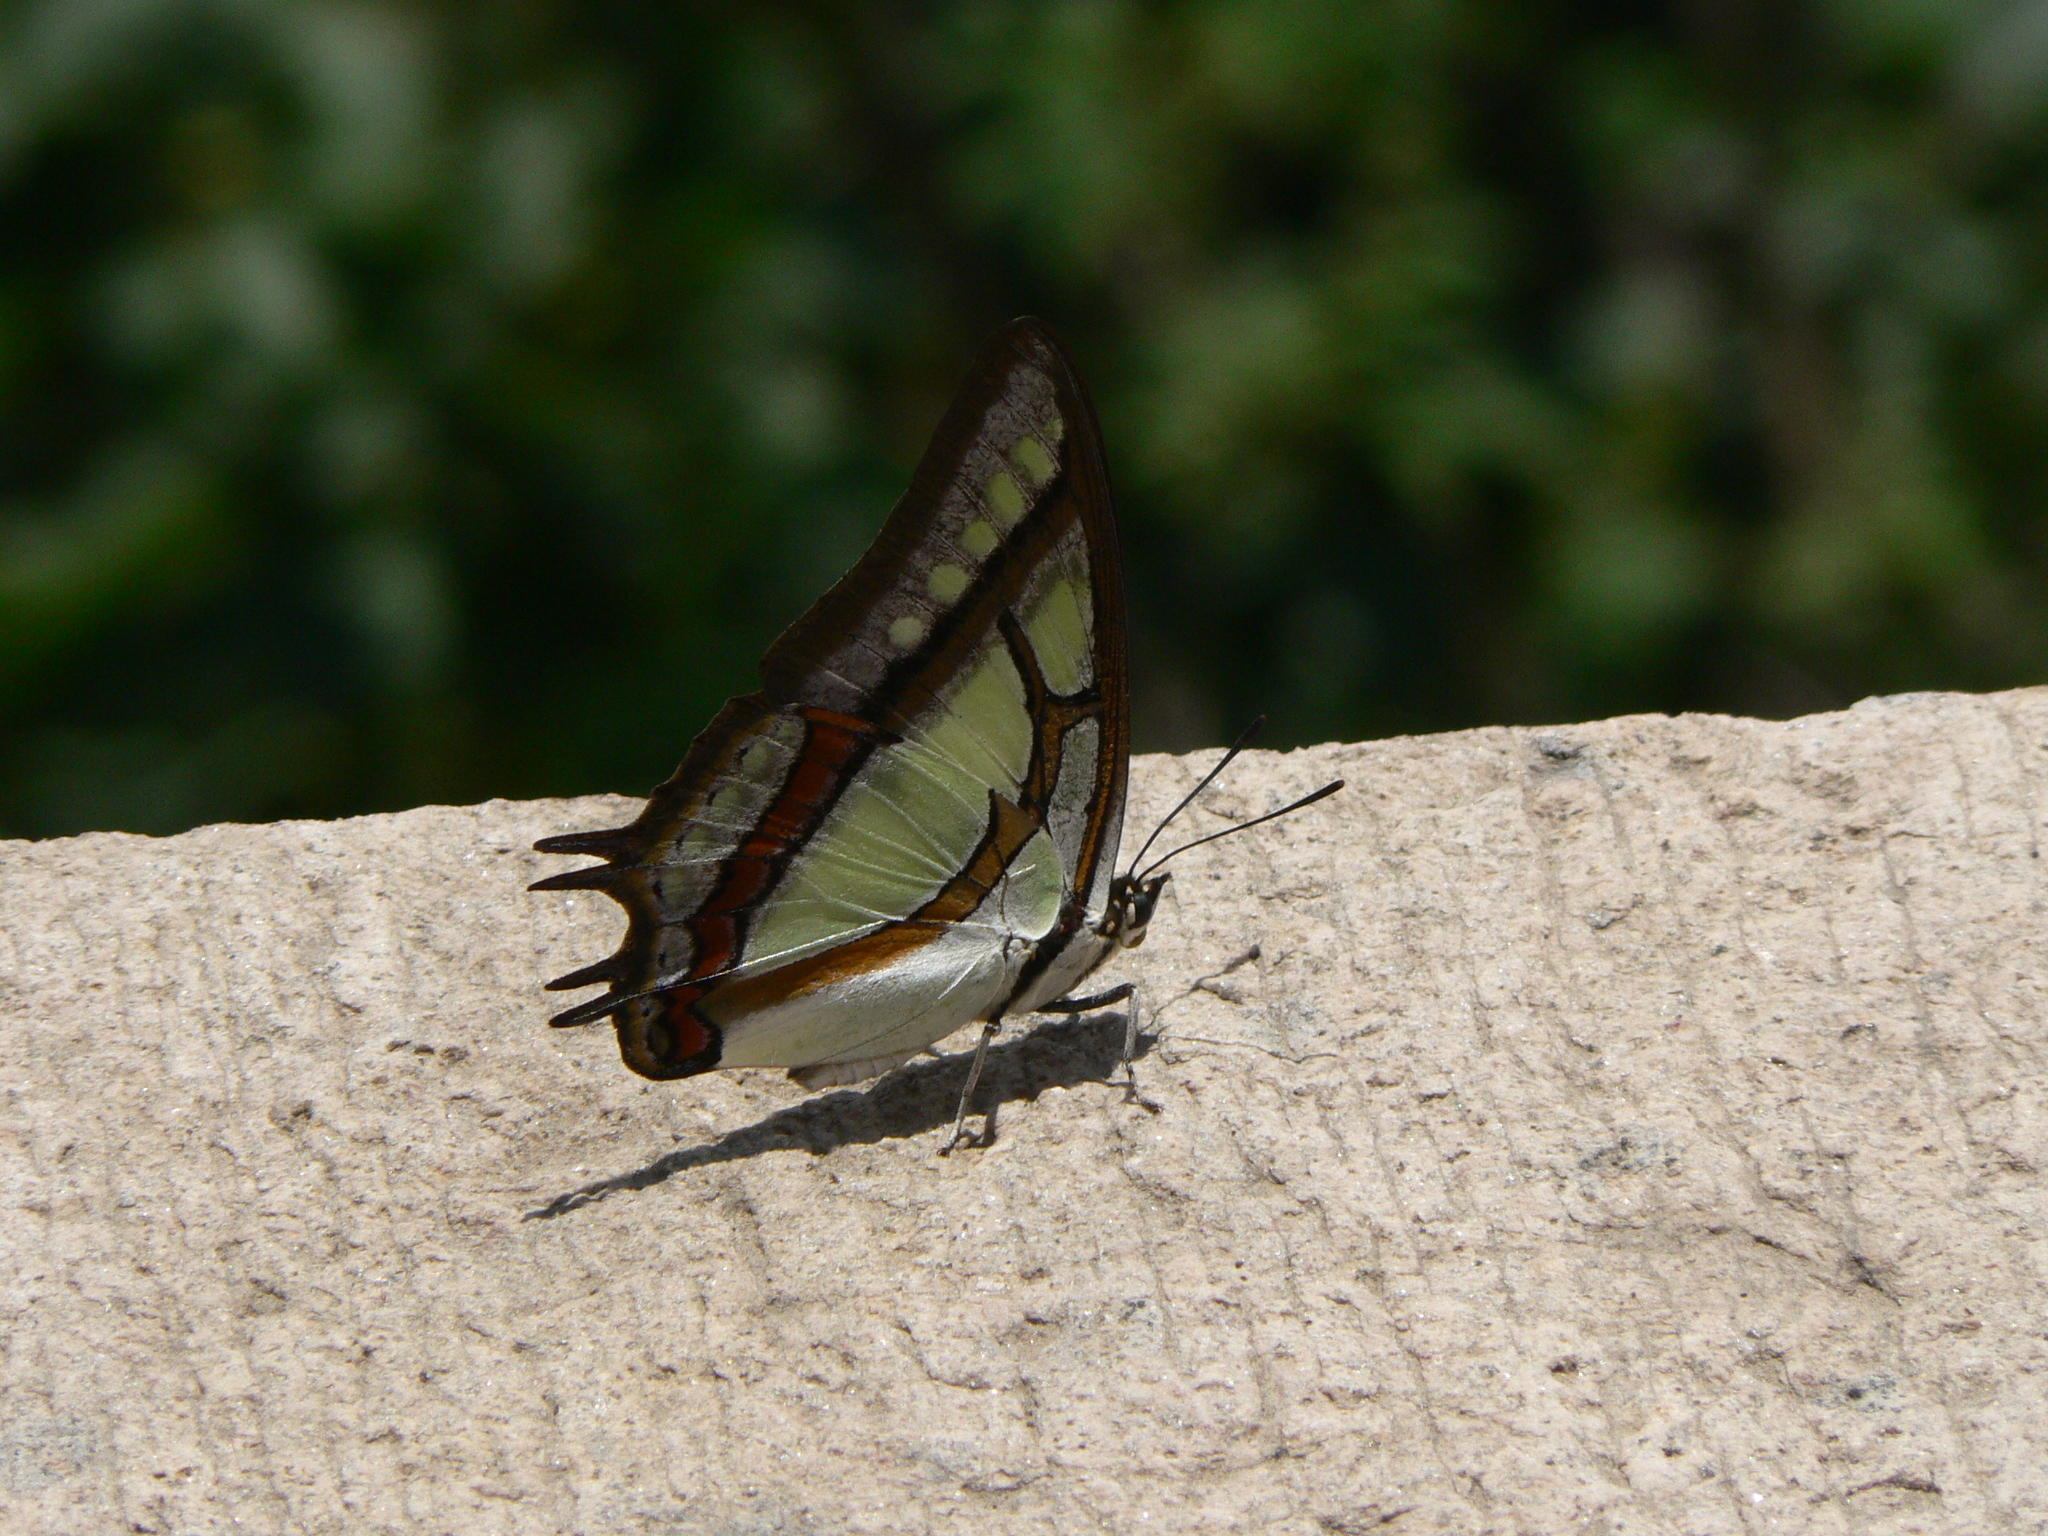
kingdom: Animalia
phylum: Arthropoda
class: Insecta
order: Lepidoptera
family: Nymphalidae
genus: Polyura
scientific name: Polyura narcaeus
